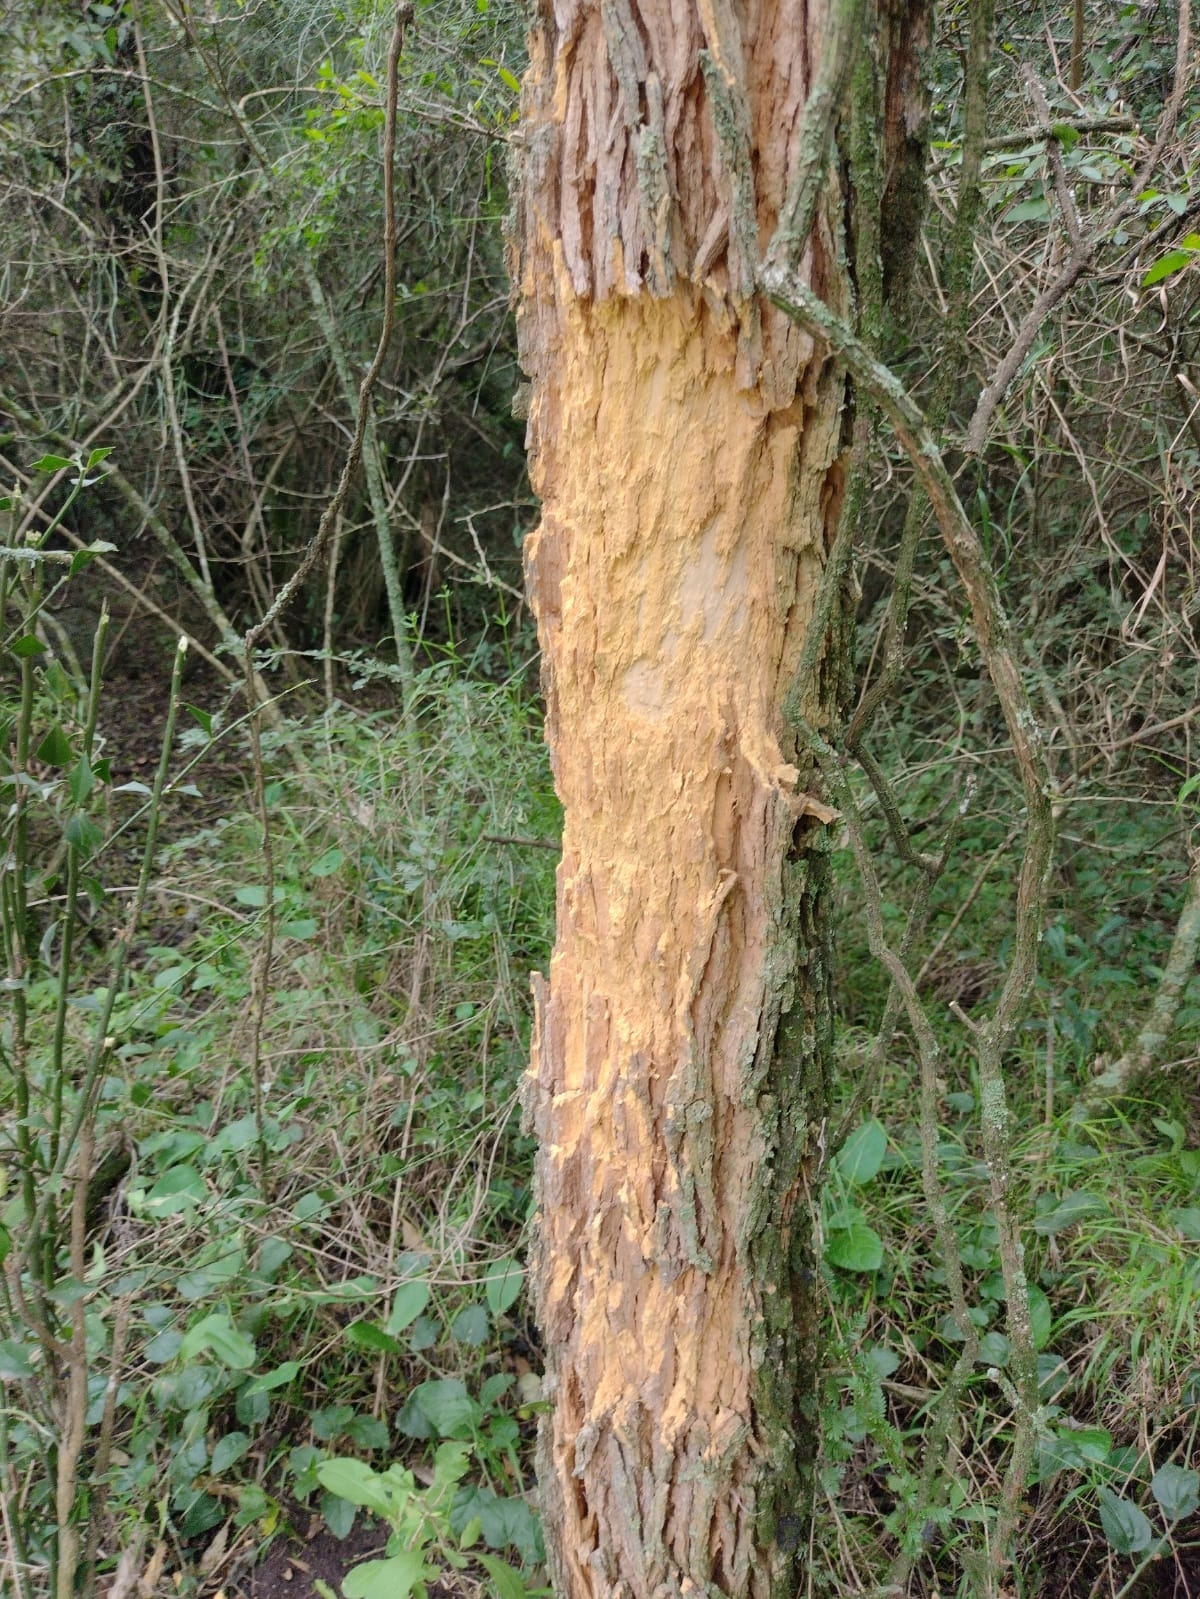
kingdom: Animalia
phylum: Chordata
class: Mammalia
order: Artiodactyla
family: Cervidae
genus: Axis
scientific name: Axis axis
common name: Chital
